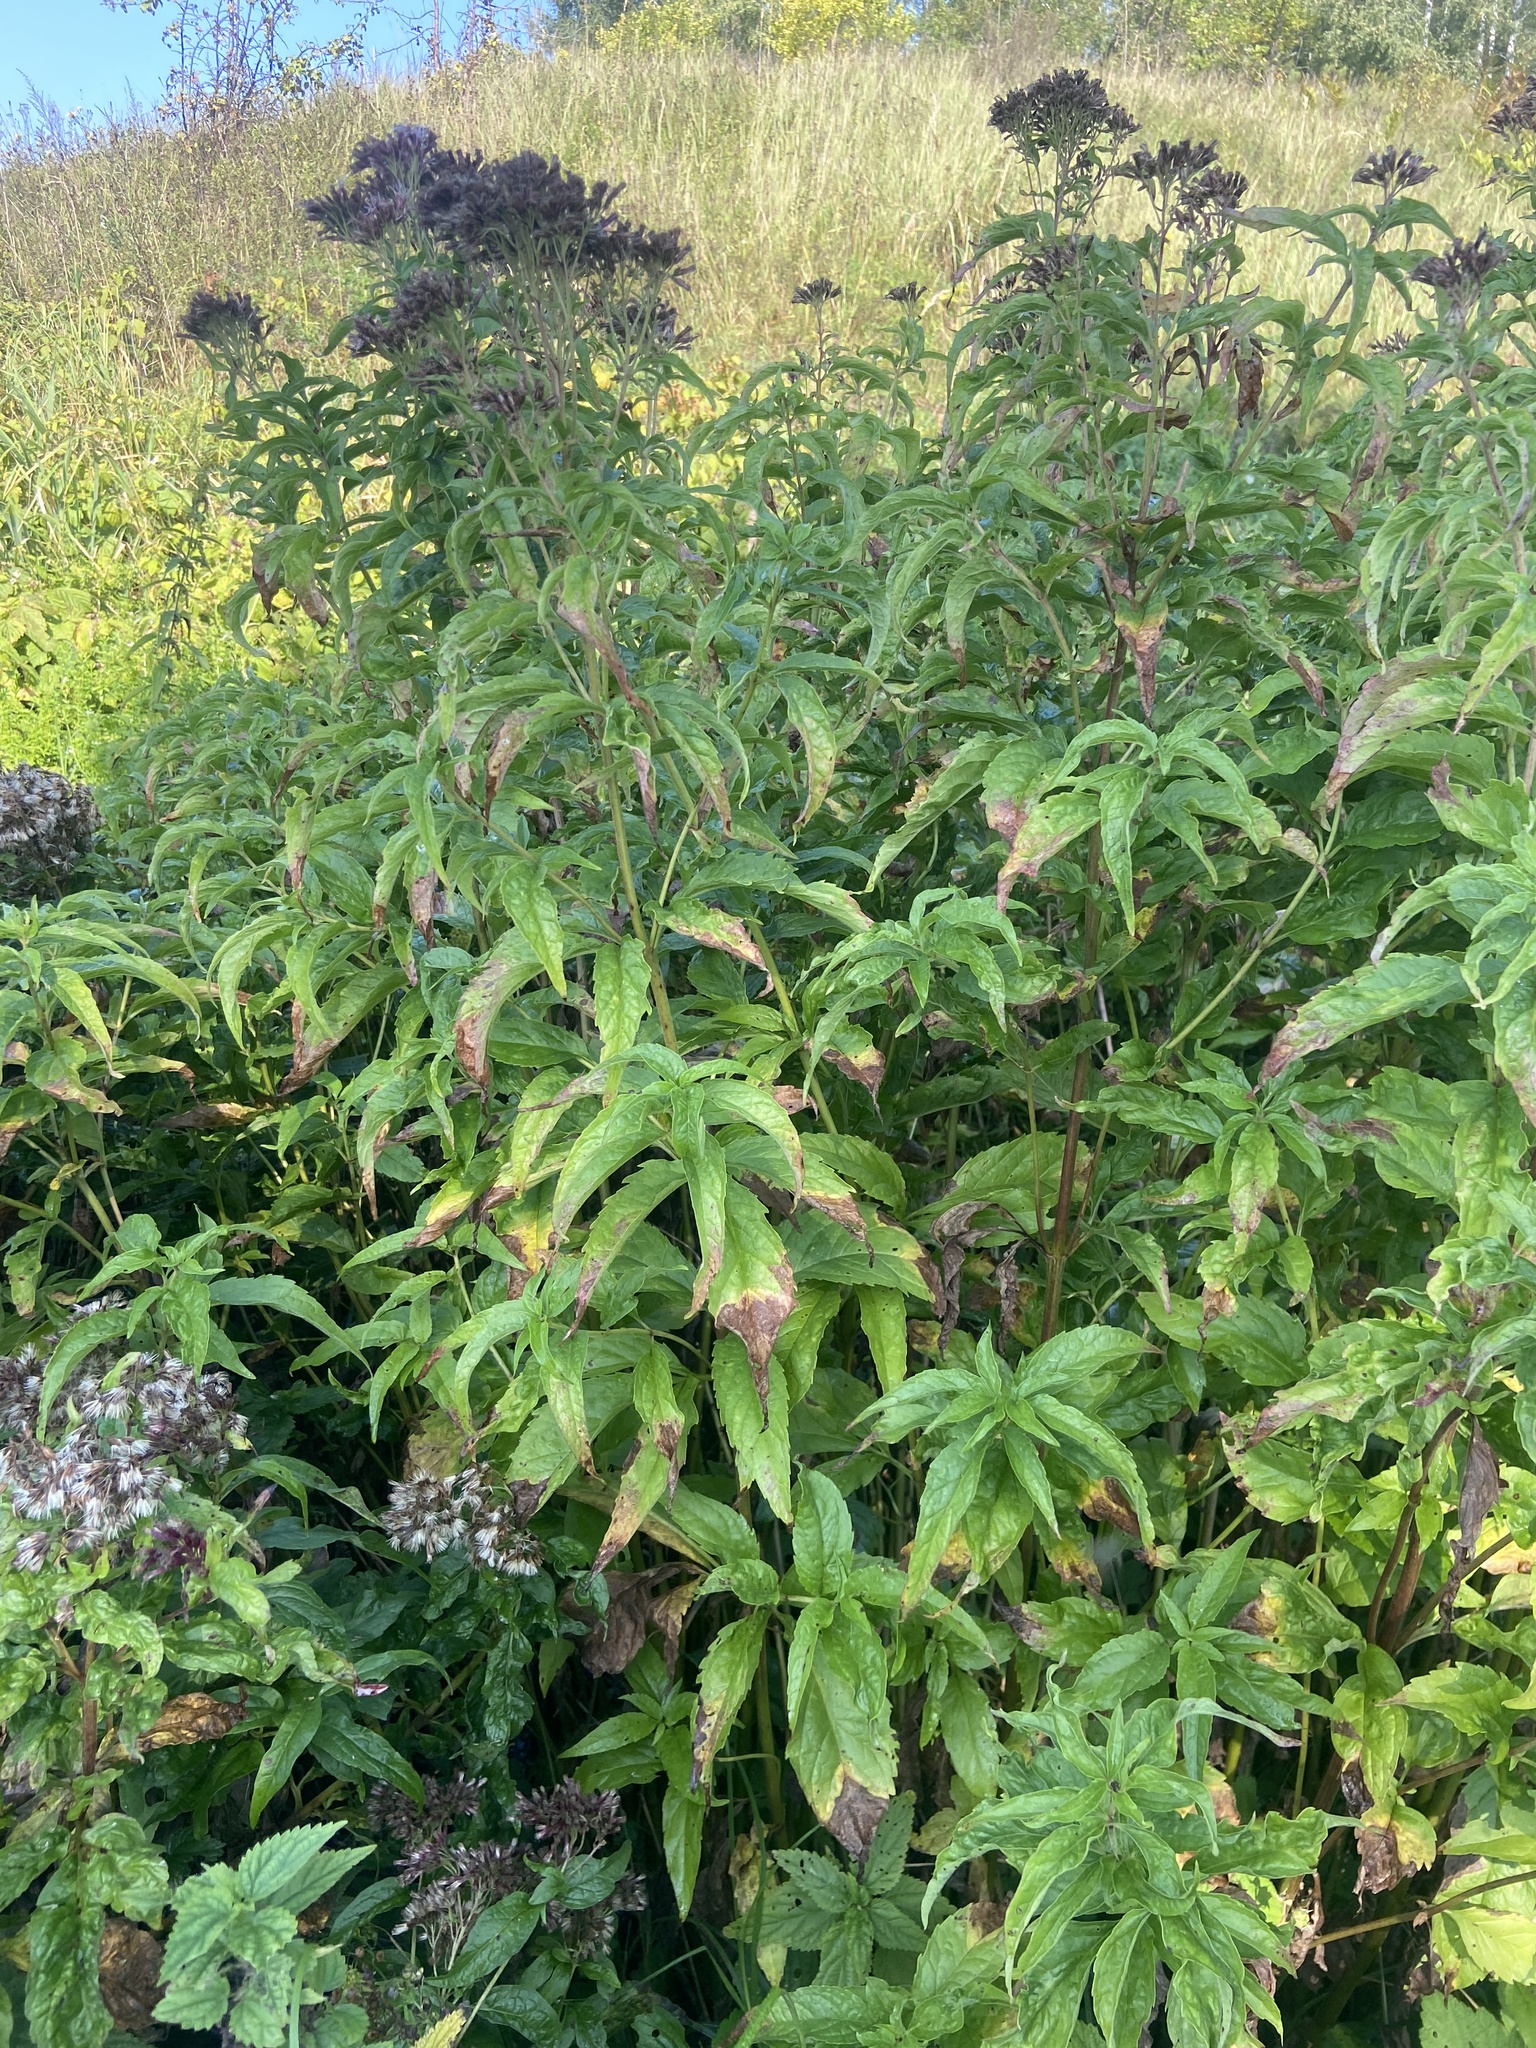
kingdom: Plantae
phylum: Tracheophyta
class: Magnoliopsida
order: Asterales
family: Asteraceae
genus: Eupatorium
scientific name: Eupatorium cannabinum
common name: Hemp-agrimony
